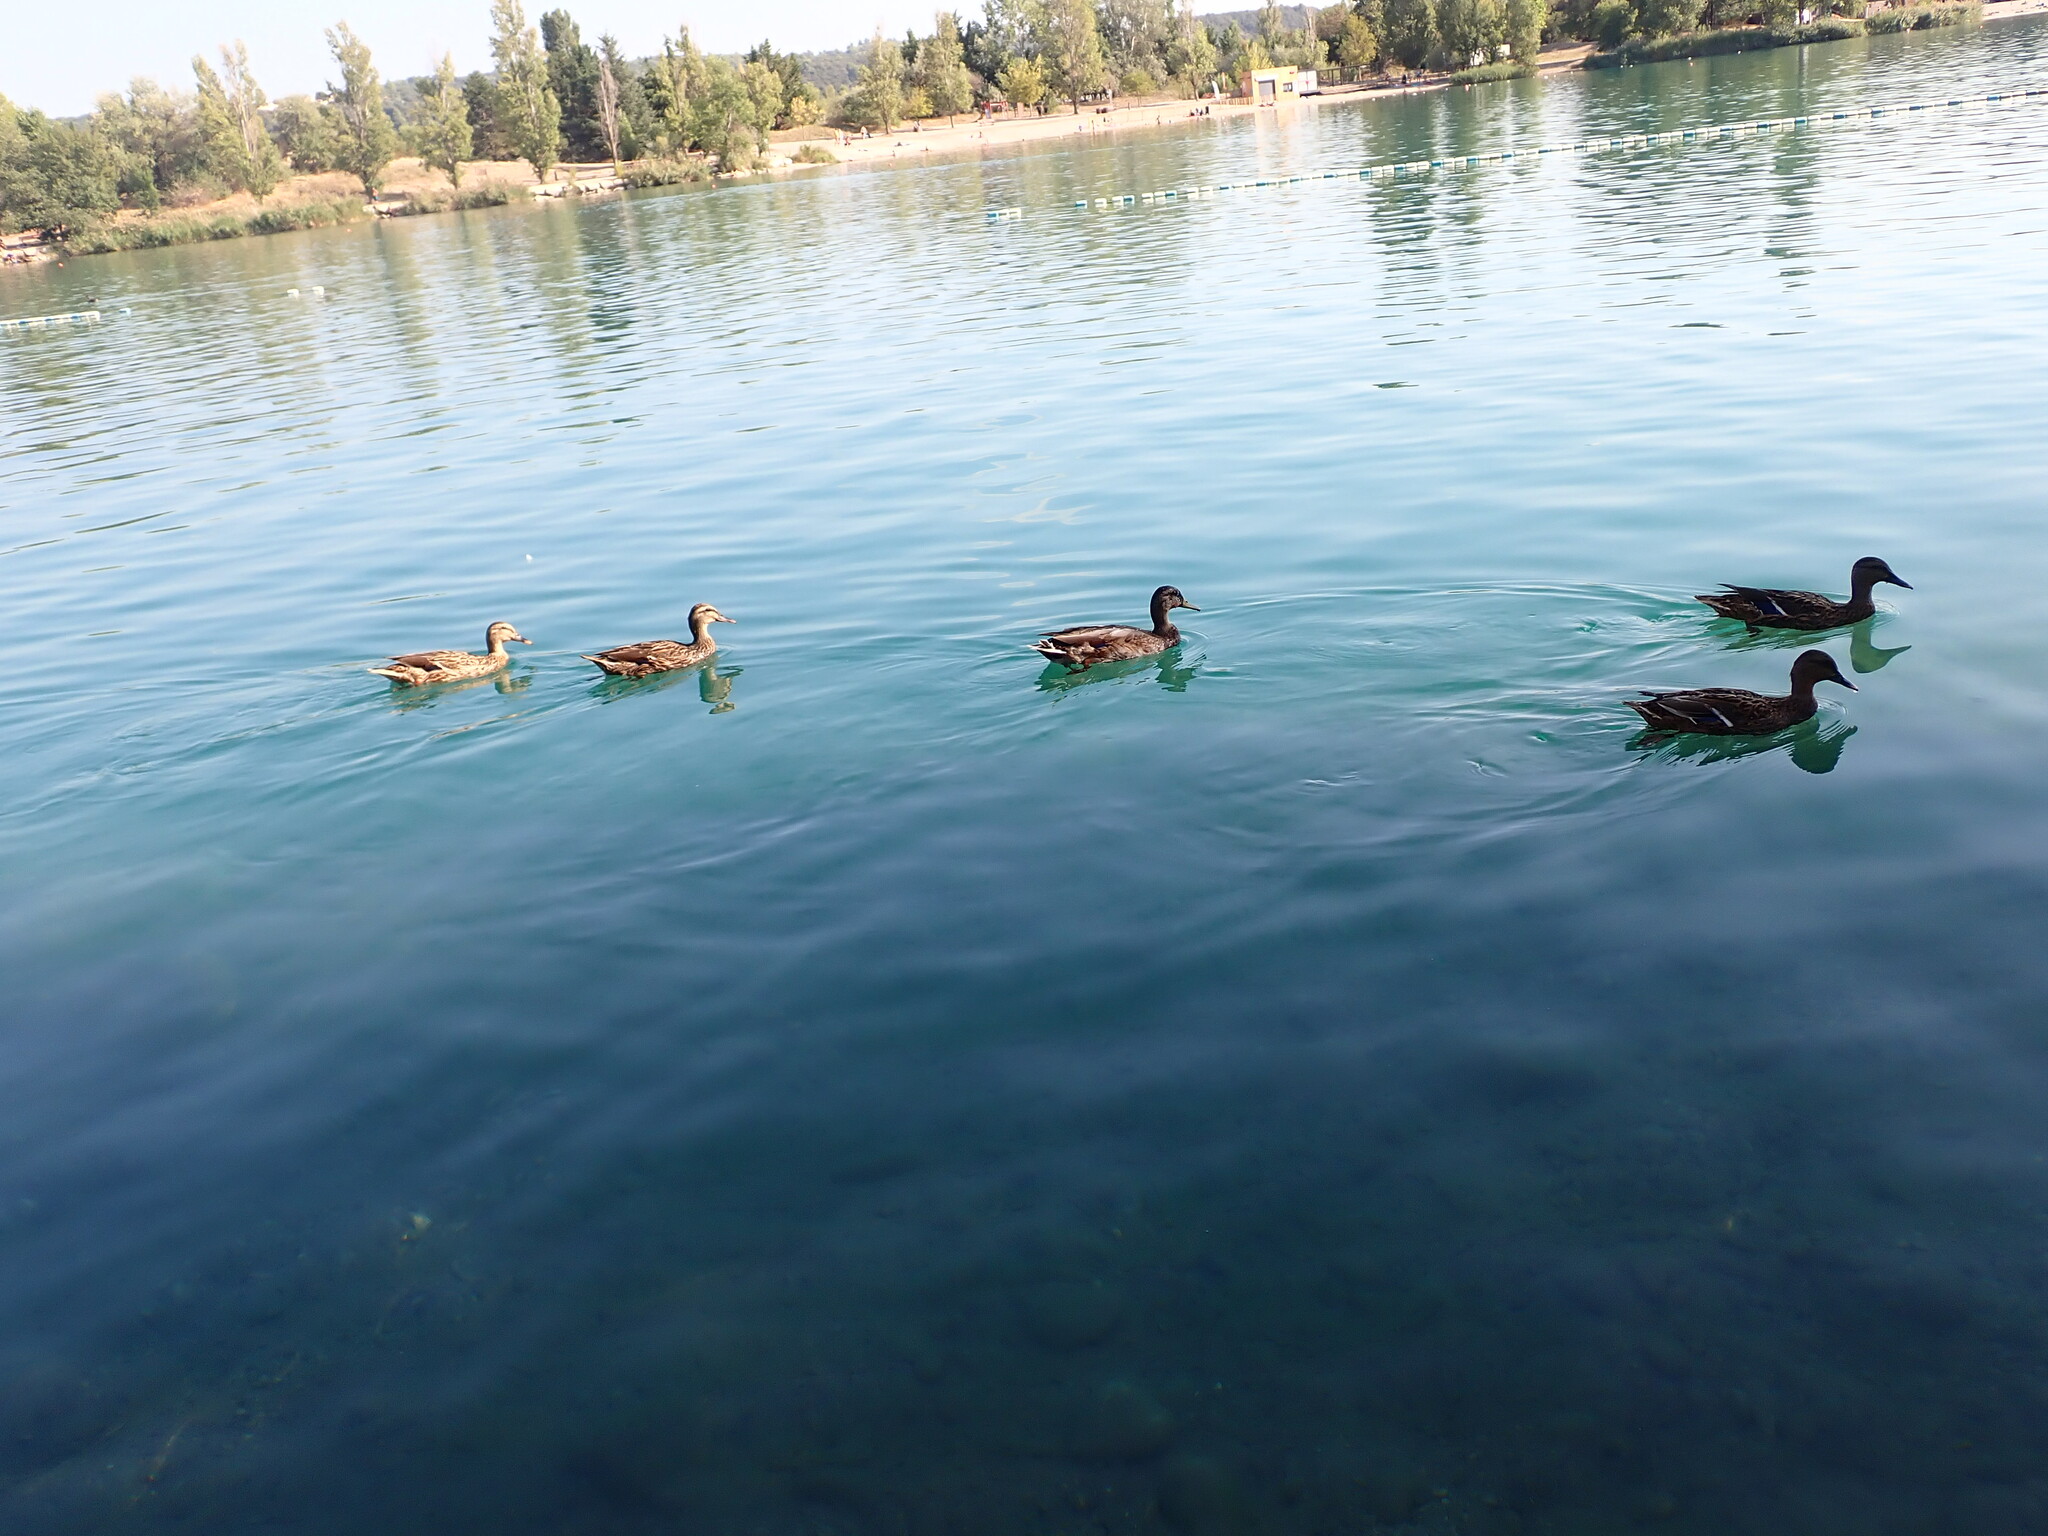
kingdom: Animalia
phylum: Chordata
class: Aves
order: Anseriformes
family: Anatidae
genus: Anas
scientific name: Anas platyrhynchos
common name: Mallard
